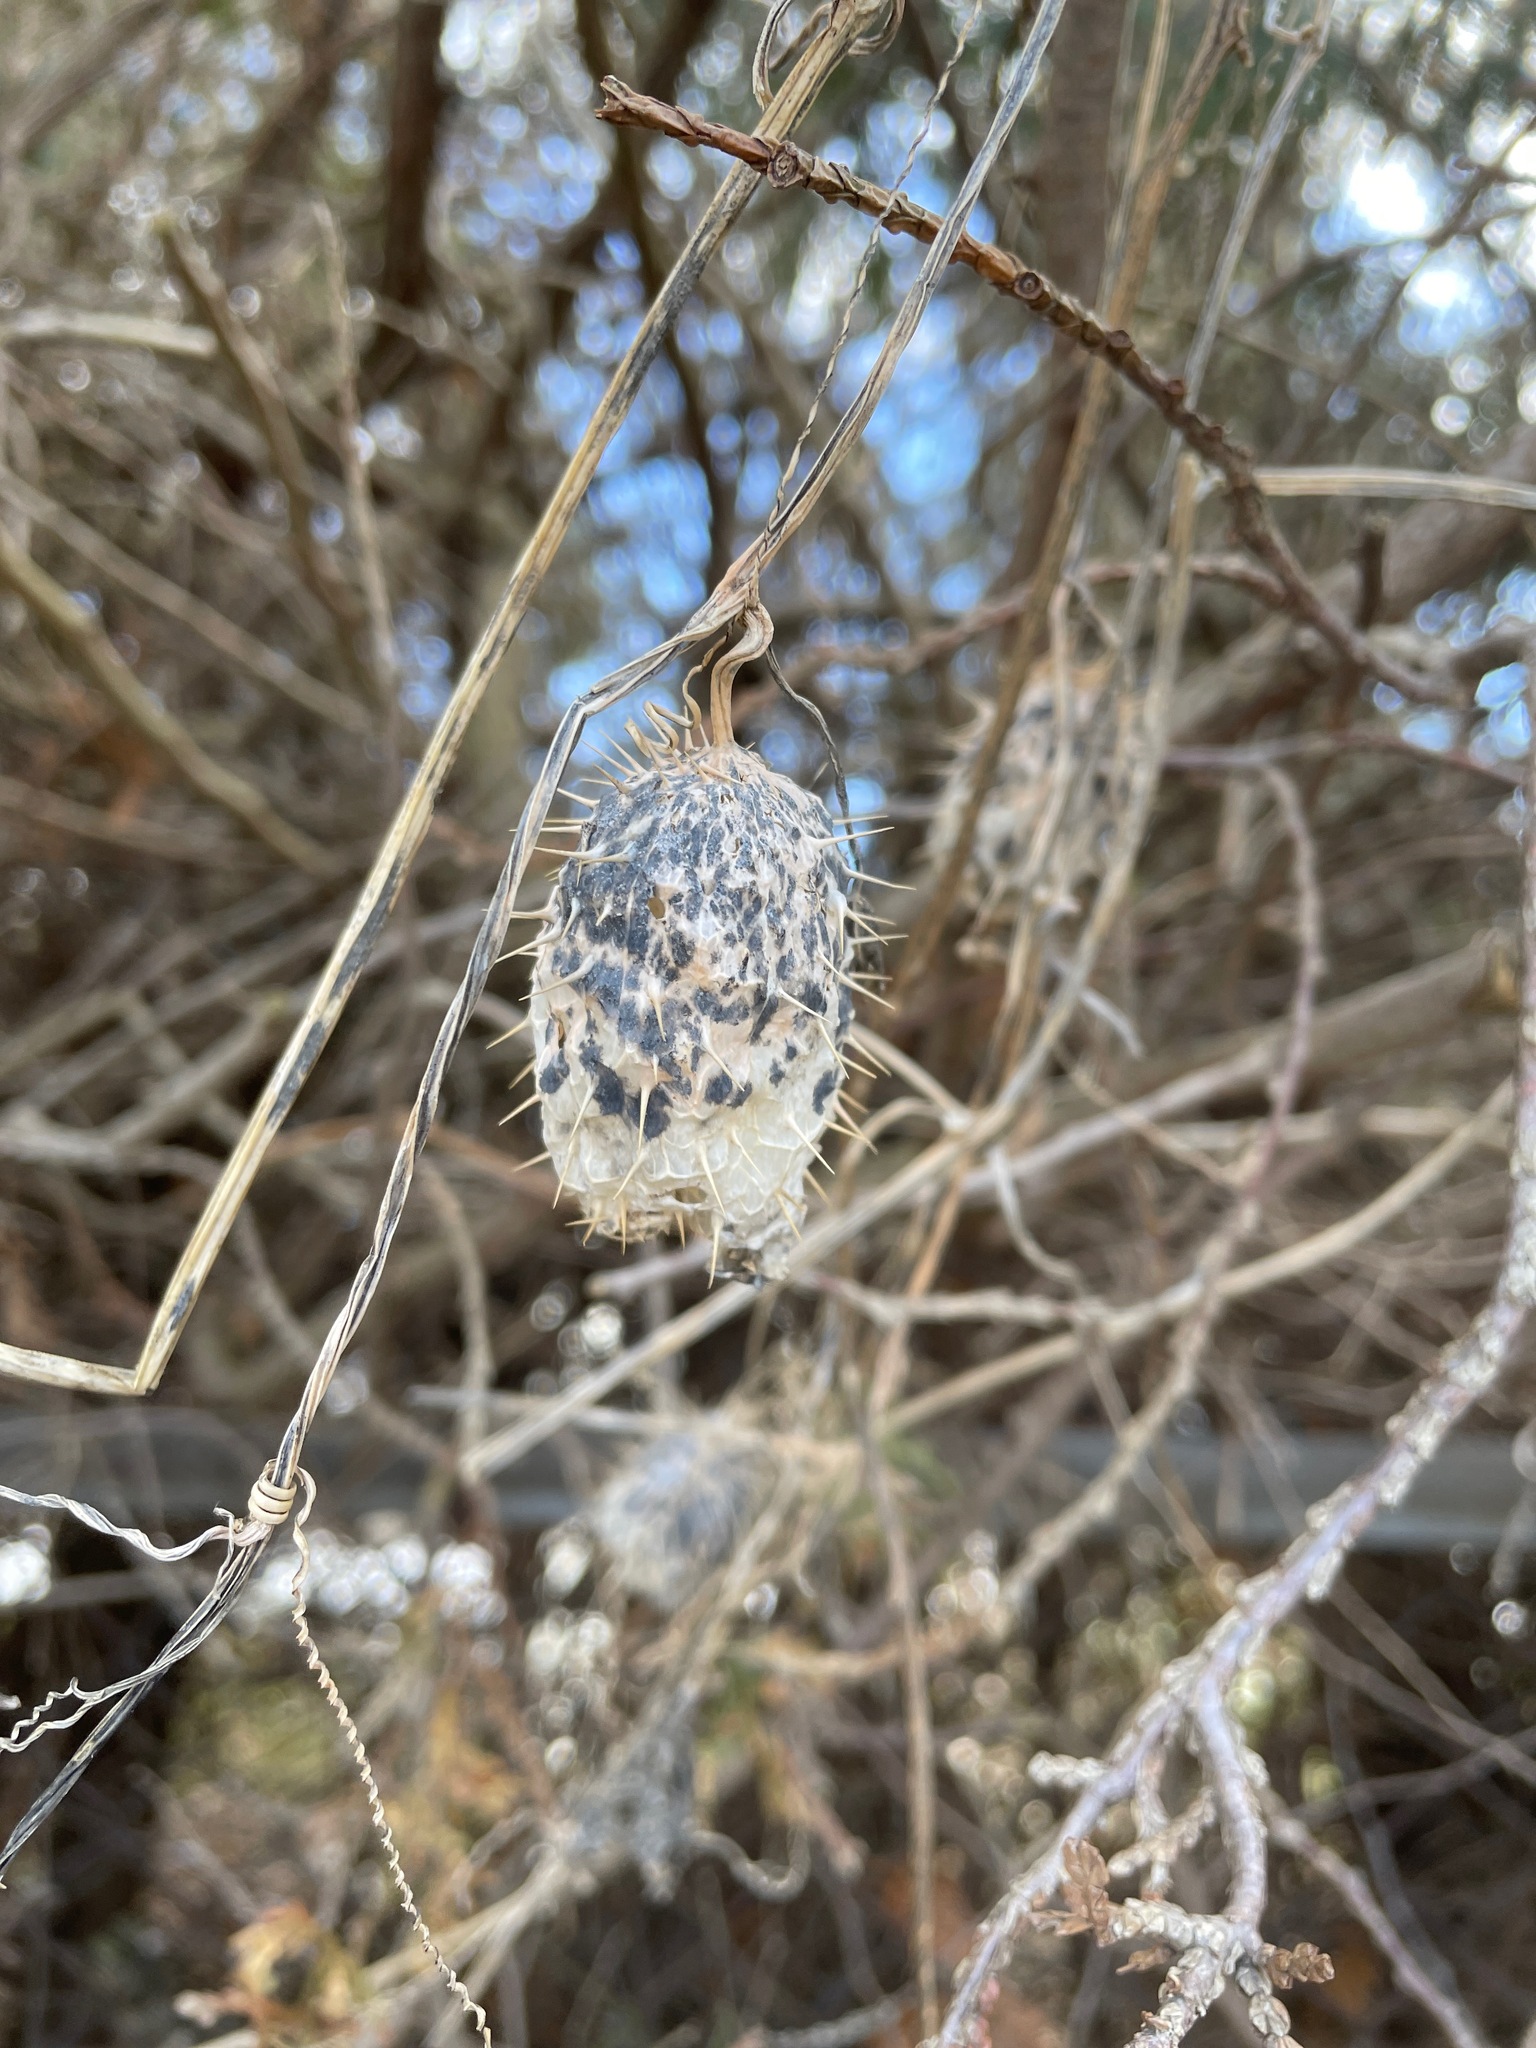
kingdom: Plantae
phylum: Tracheophyta
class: Magnoliopsida
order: Cucurbitales
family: Cucurbitaceae
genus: Echinocystis
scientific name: Echinocystis lobata
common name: Wild cucumber
